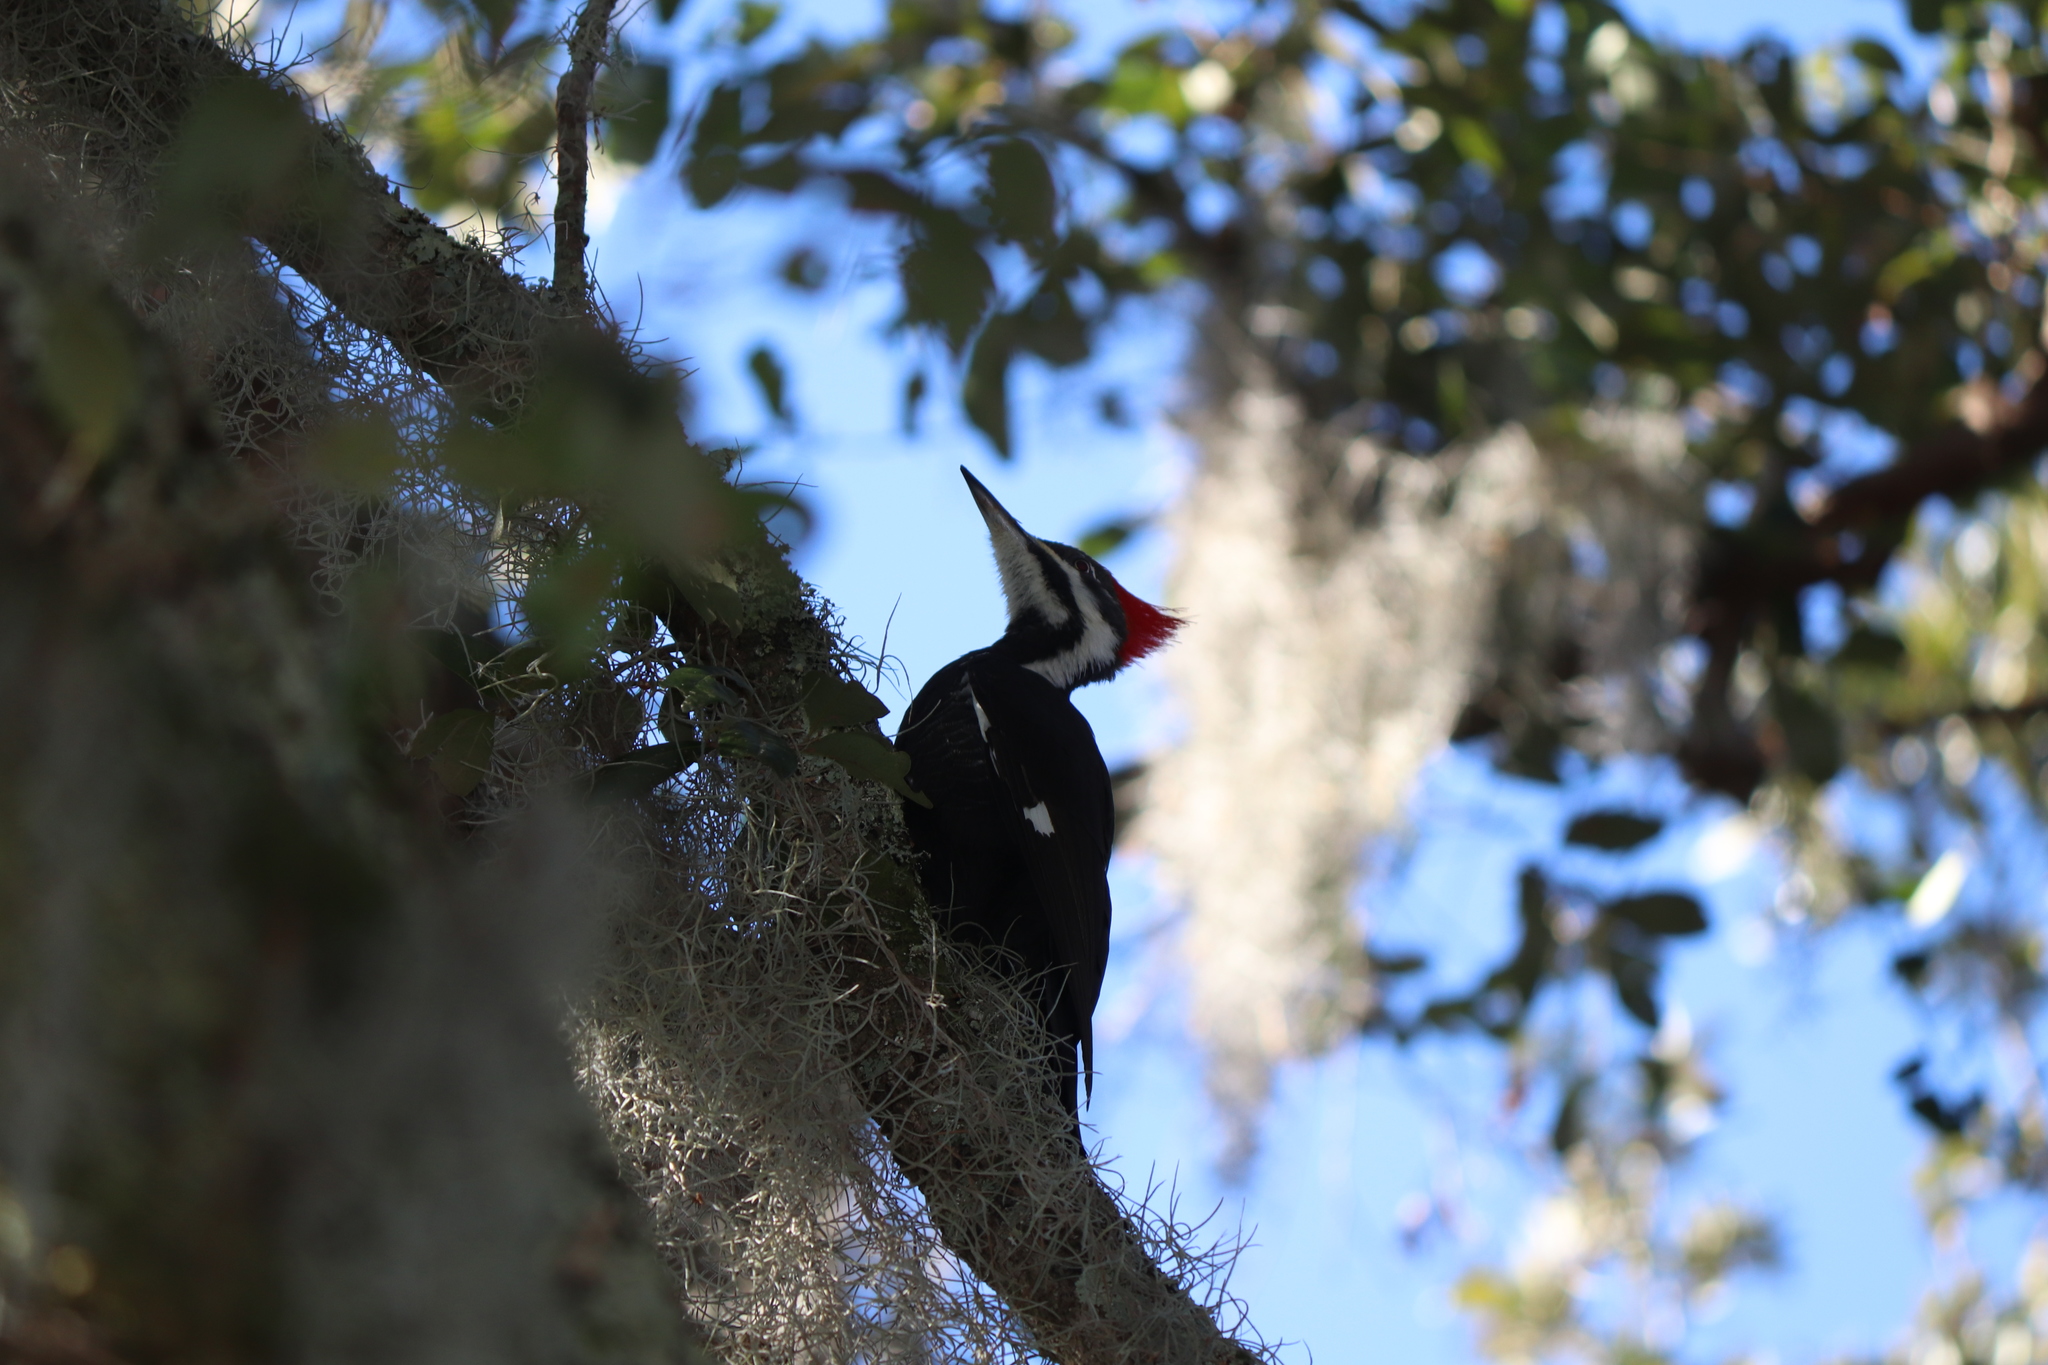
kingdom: Animalia
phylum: Chordata
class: Aves
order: Piciformes
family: Picidae
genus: Dryocopus
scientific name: Dryocopus pileatus
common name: Pileated woodpecker
